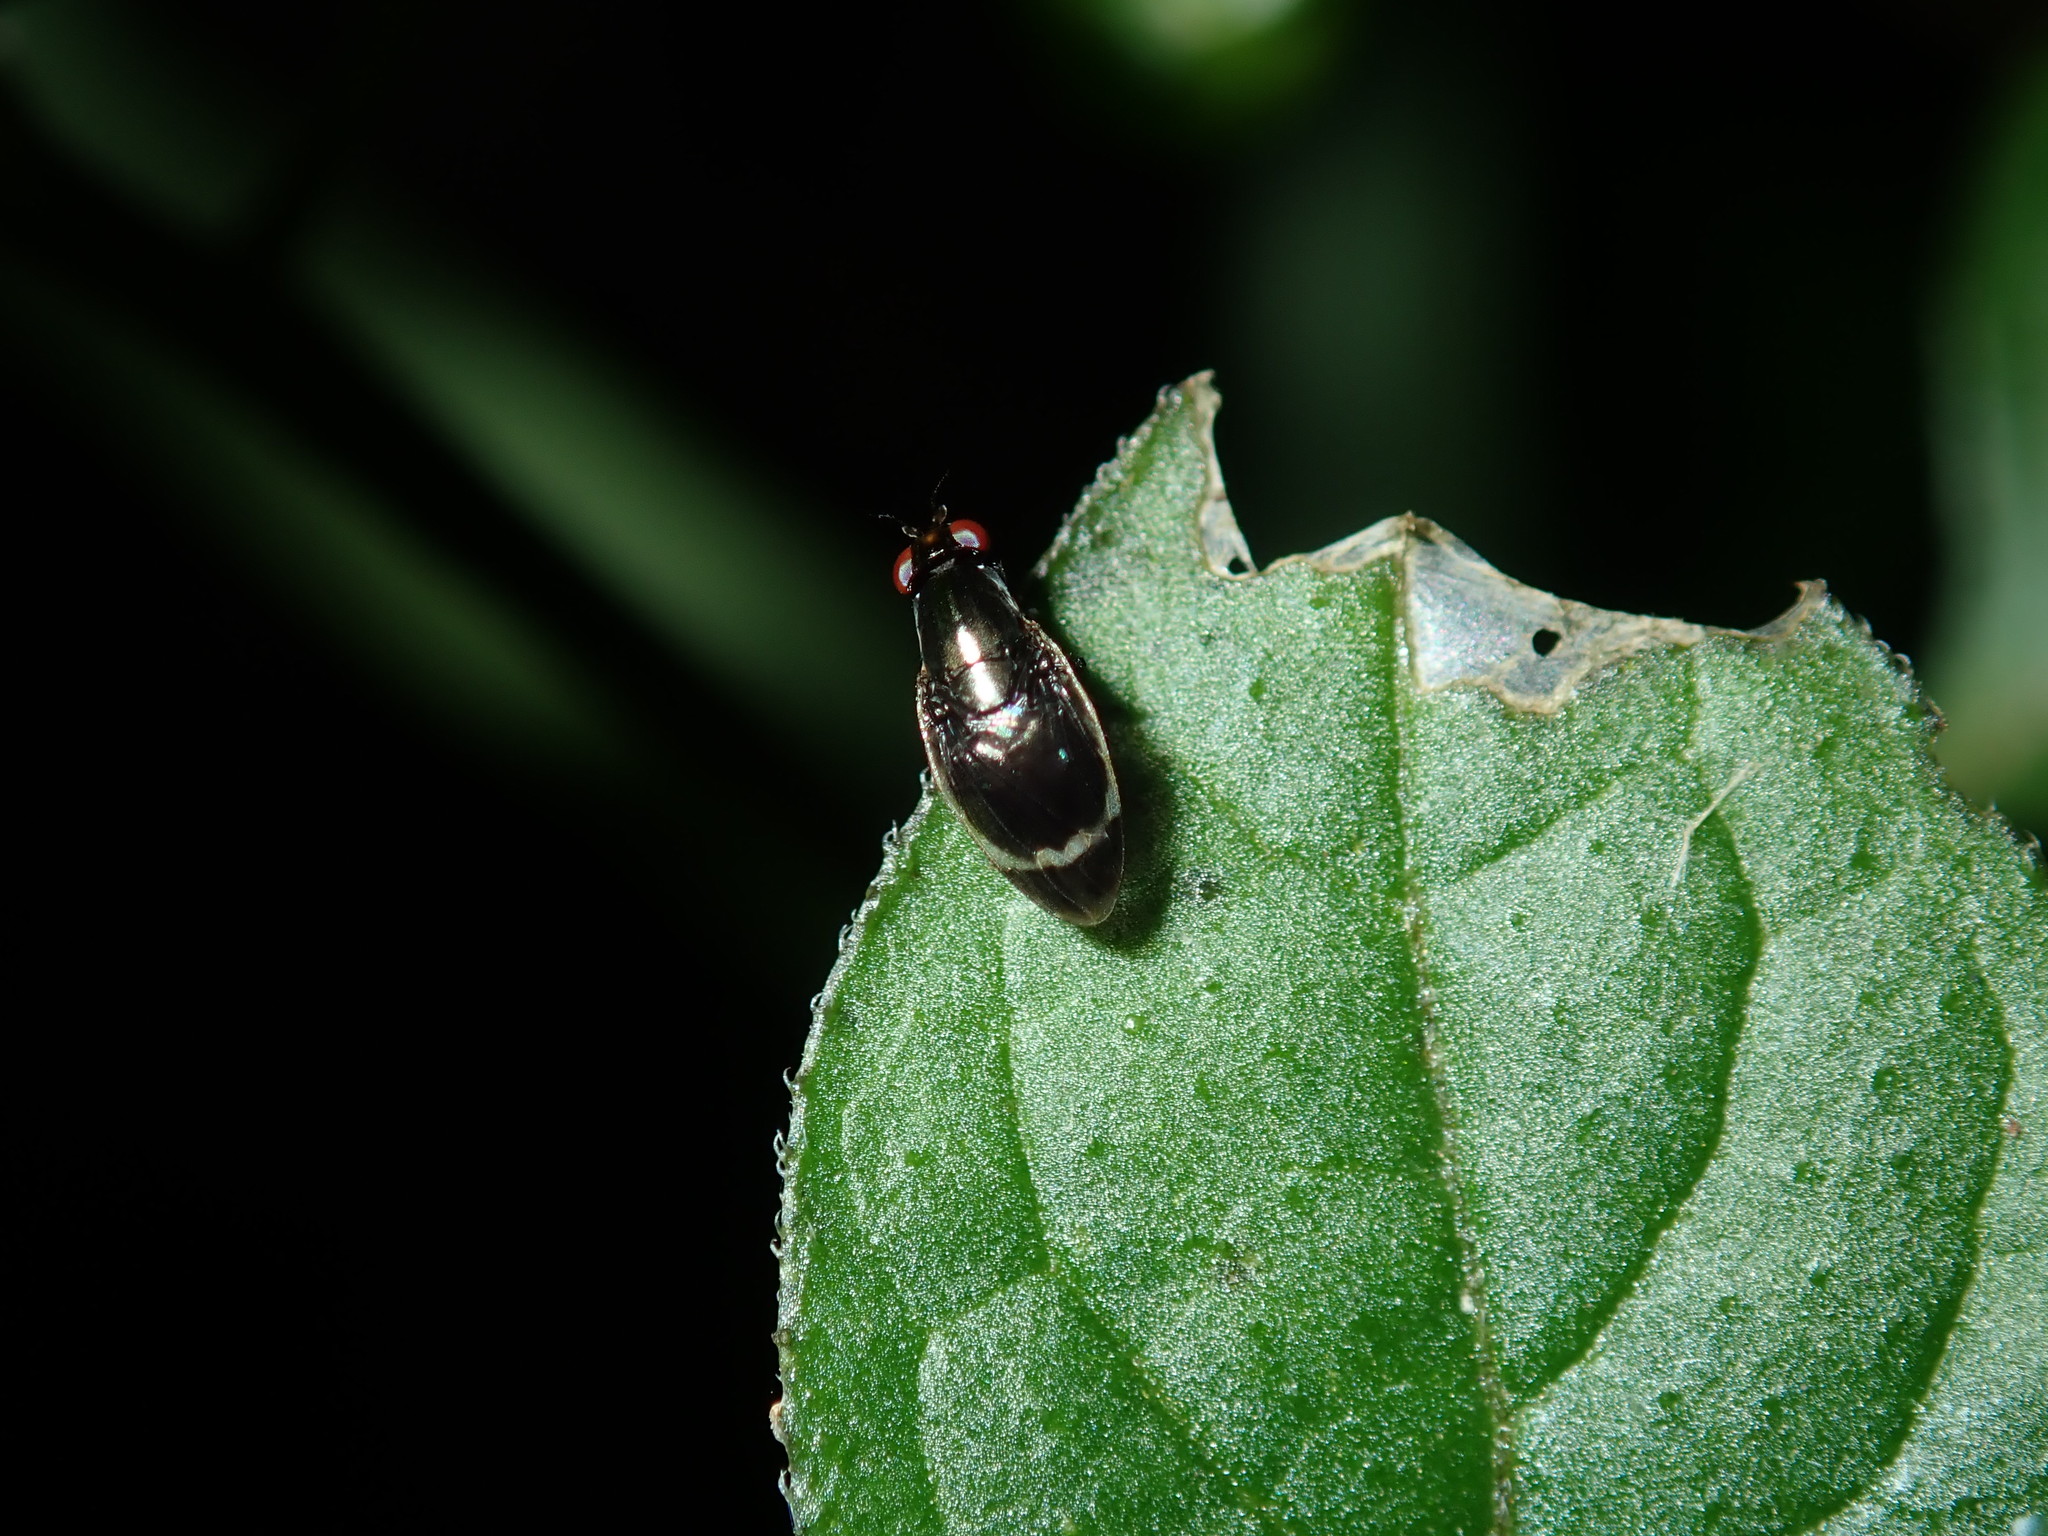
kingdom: Animalia
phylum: Arthropoda
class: Insecta
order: Diptera
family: Lauxaniidae
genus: Depressa
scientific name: Depressa albicosta
